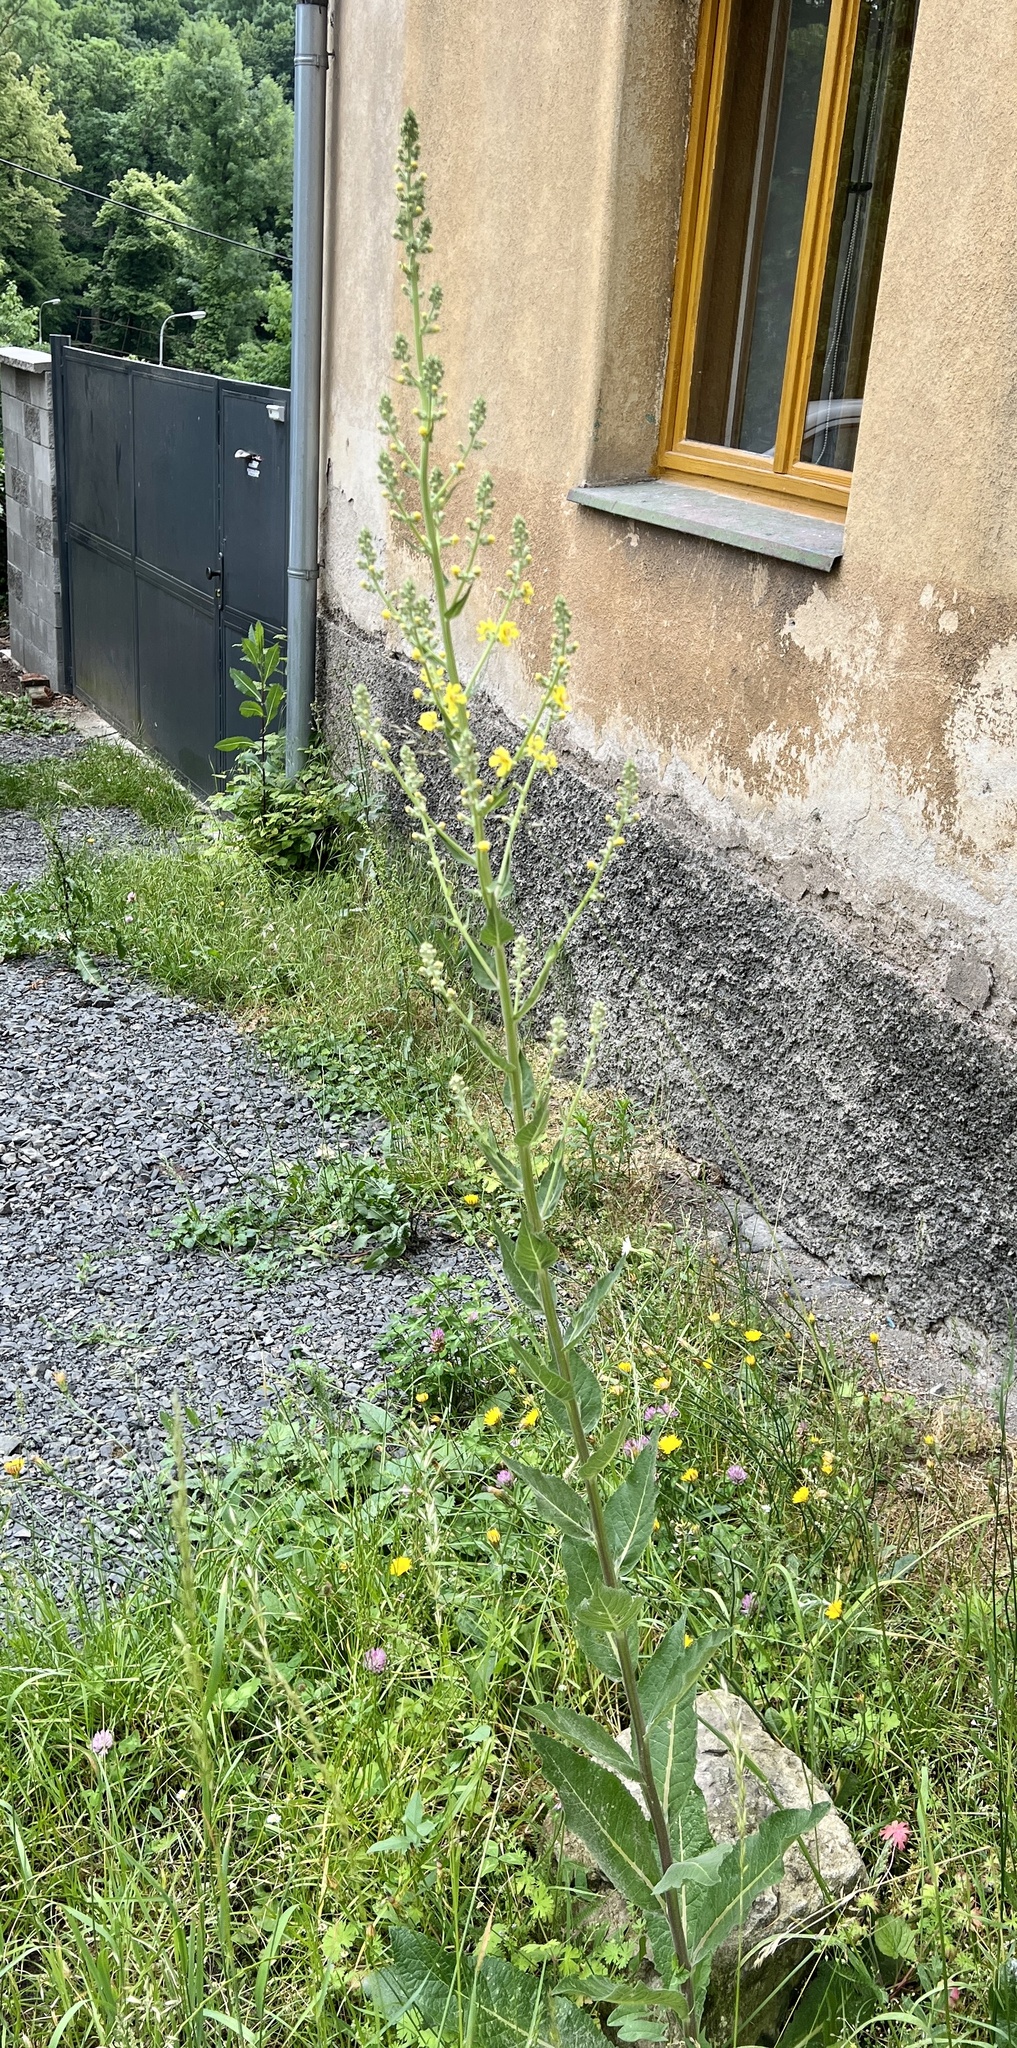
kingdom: Plantae
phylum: Tracheophyta
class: Magnoliopsida
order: Lamiales
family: Scrophulariaceae
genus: Verbascum
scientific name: Verbascum lychnitis
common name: White mullein
